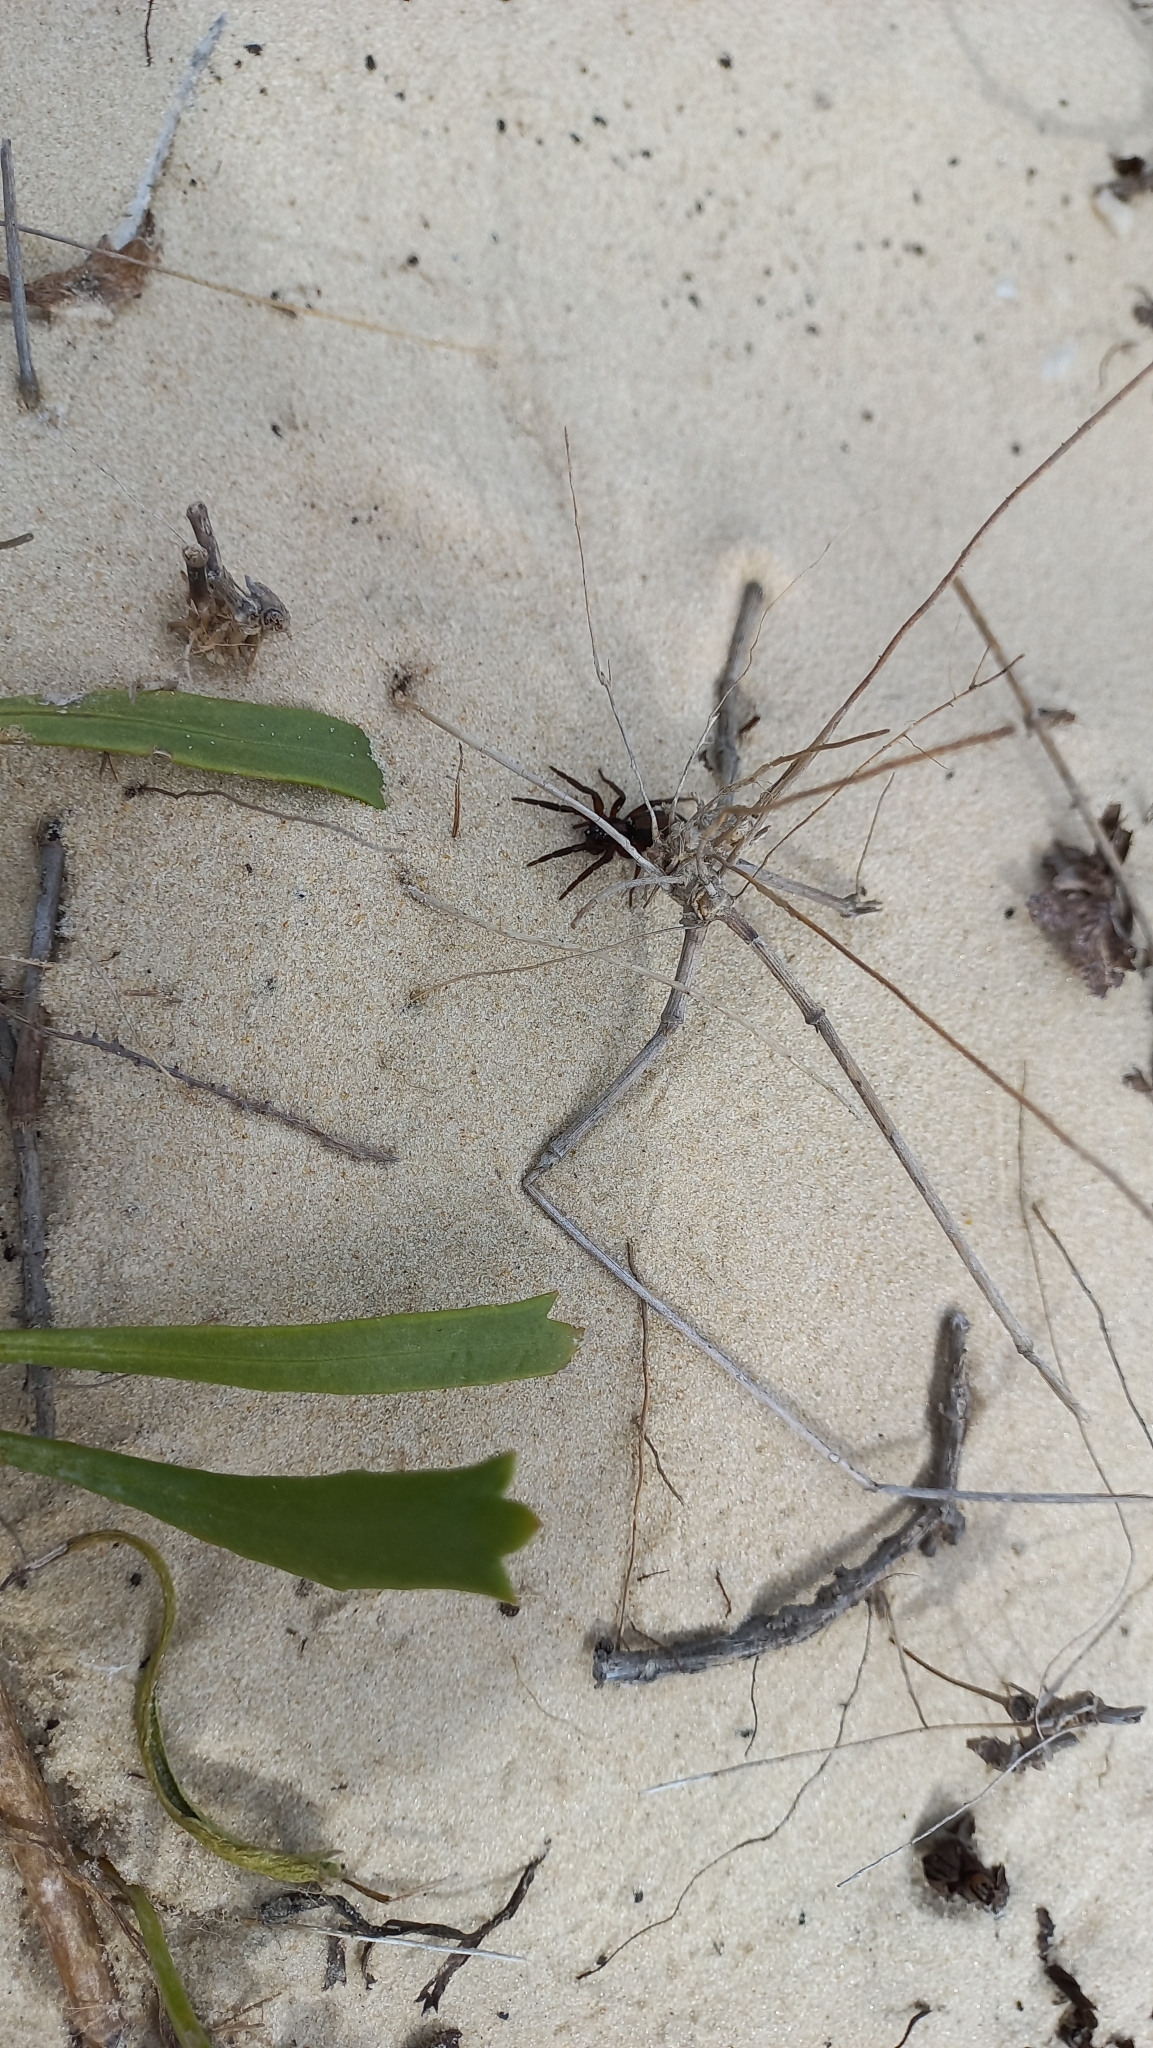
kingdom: Animalia
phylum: Arthropoda
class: Arachnida
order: Araneae
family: Miturgidae
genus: Teminius
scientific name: Teminius insularis
